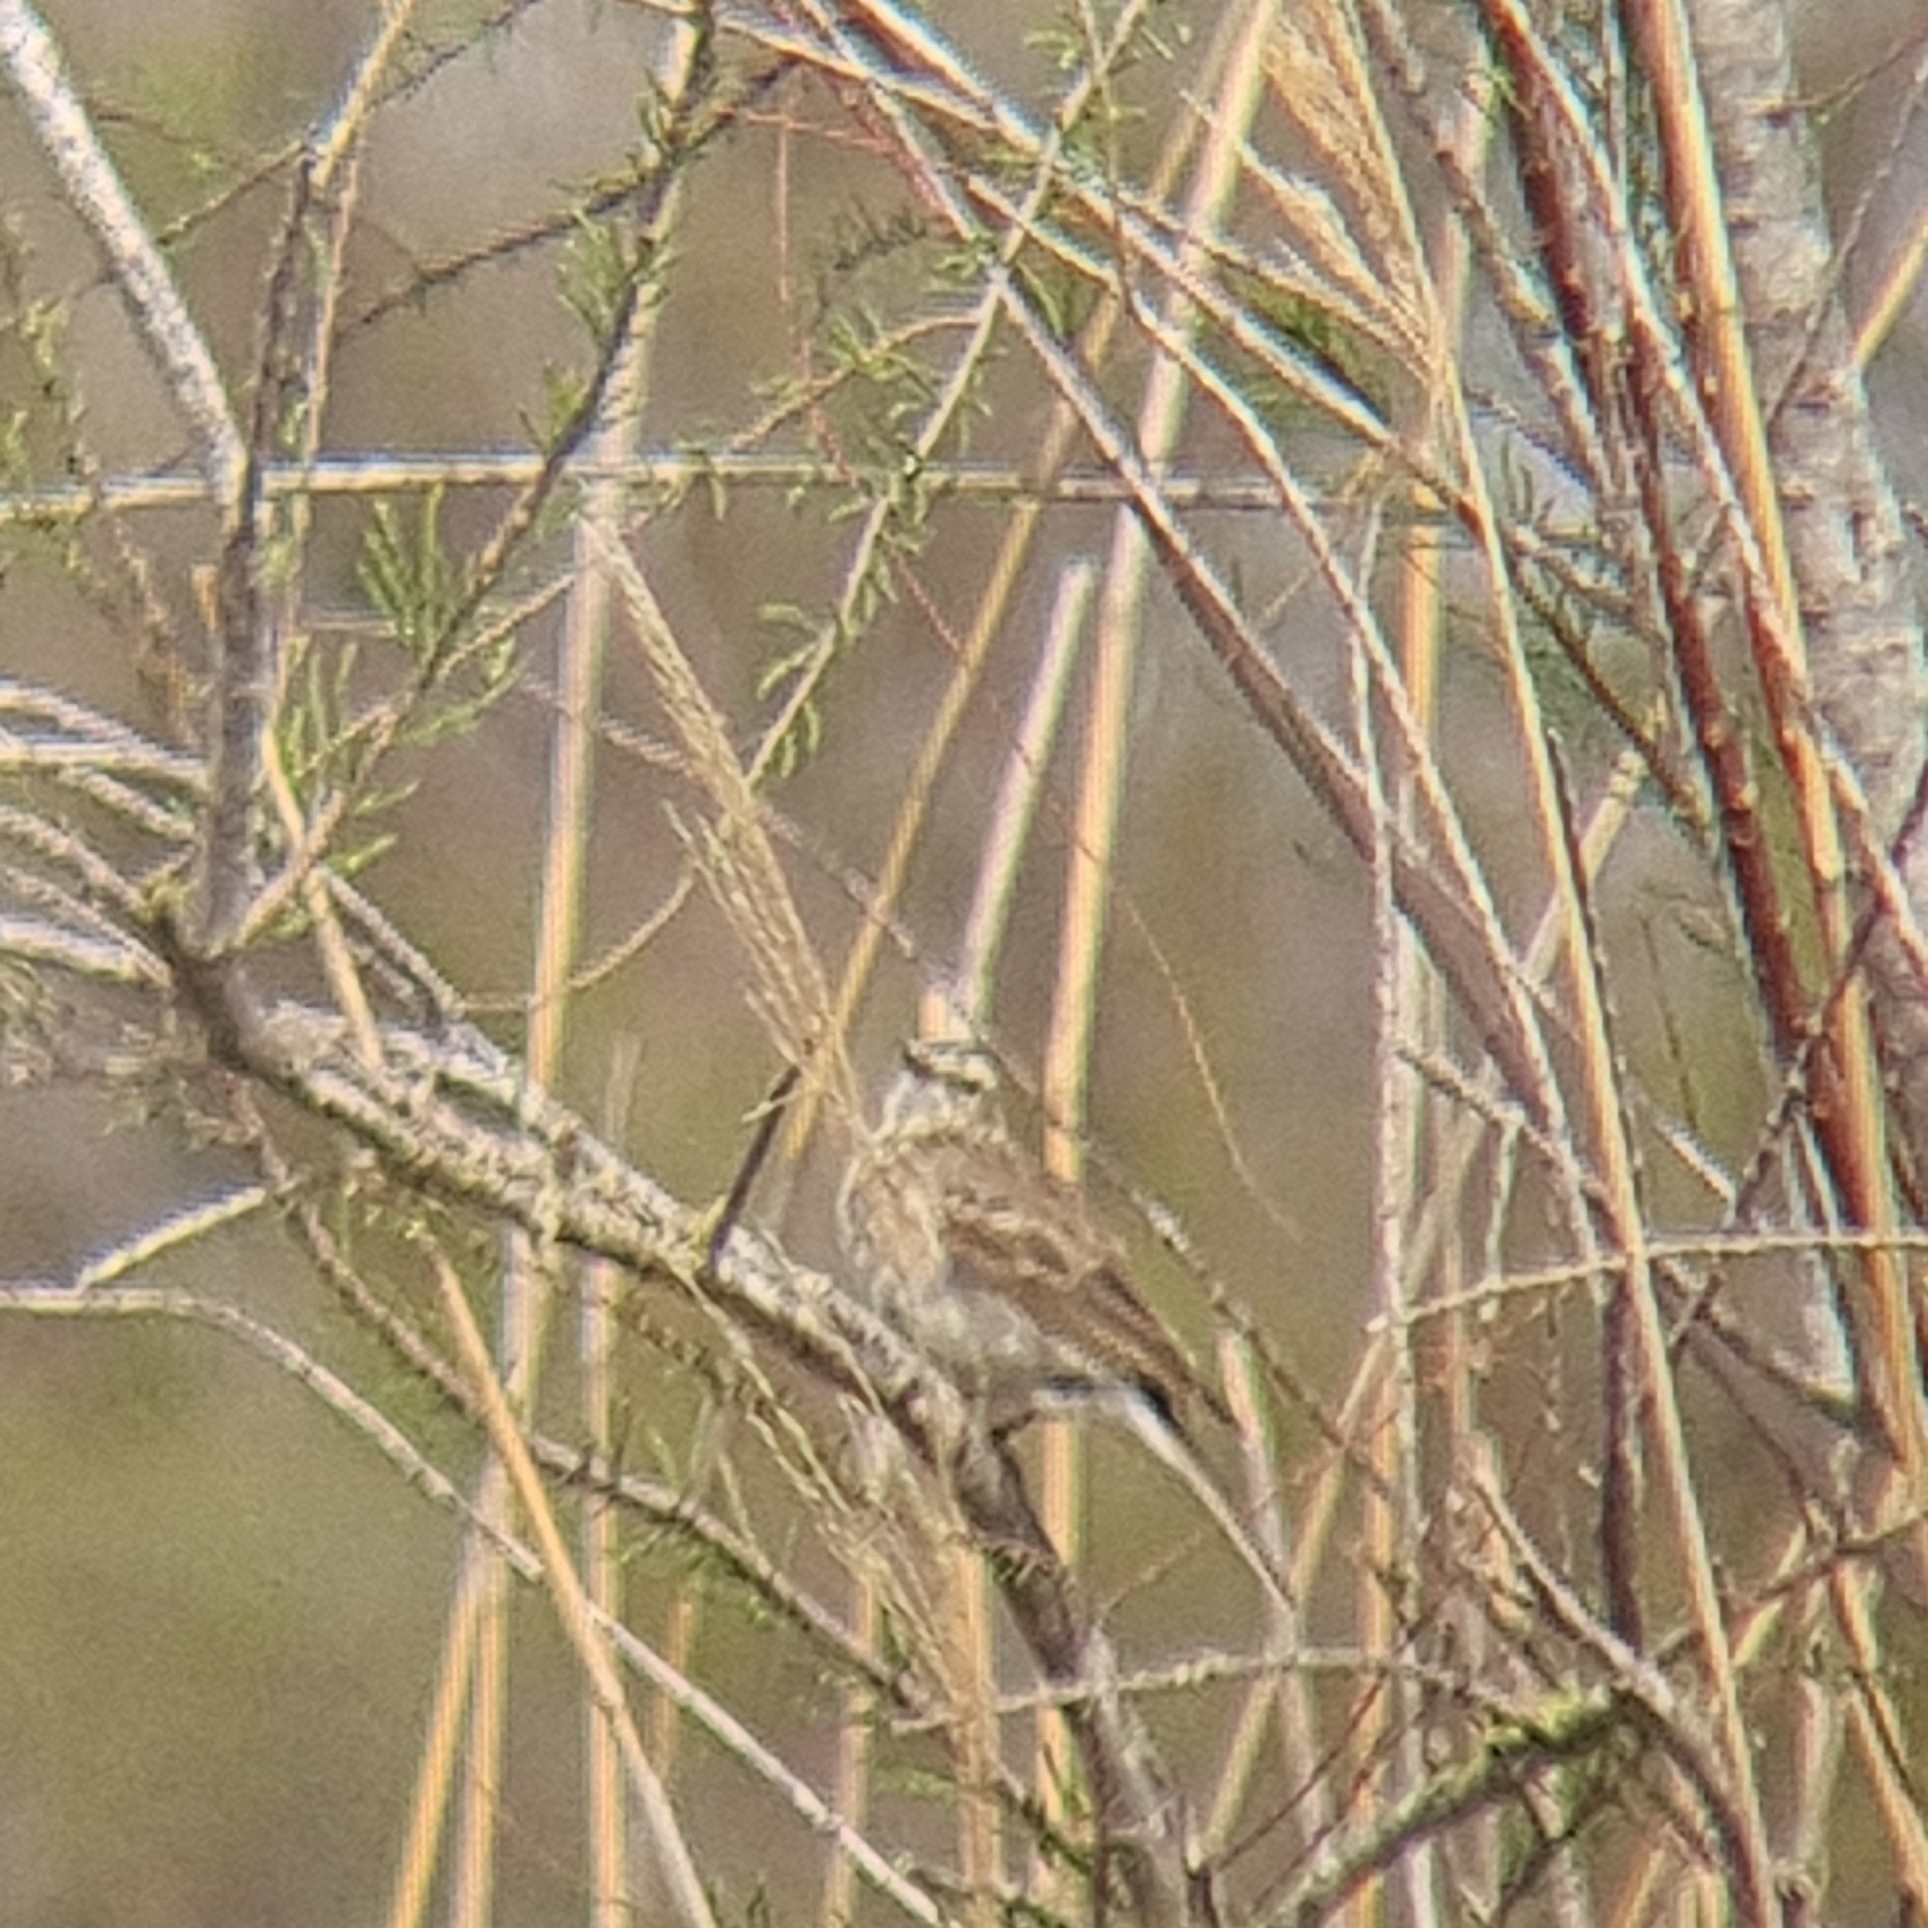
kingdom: Animalia
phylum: Chordata
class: Aves
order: Passeriformes
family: Motacillidae
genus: Anthus
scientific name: Anthus spinoletta
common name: Water pipit
